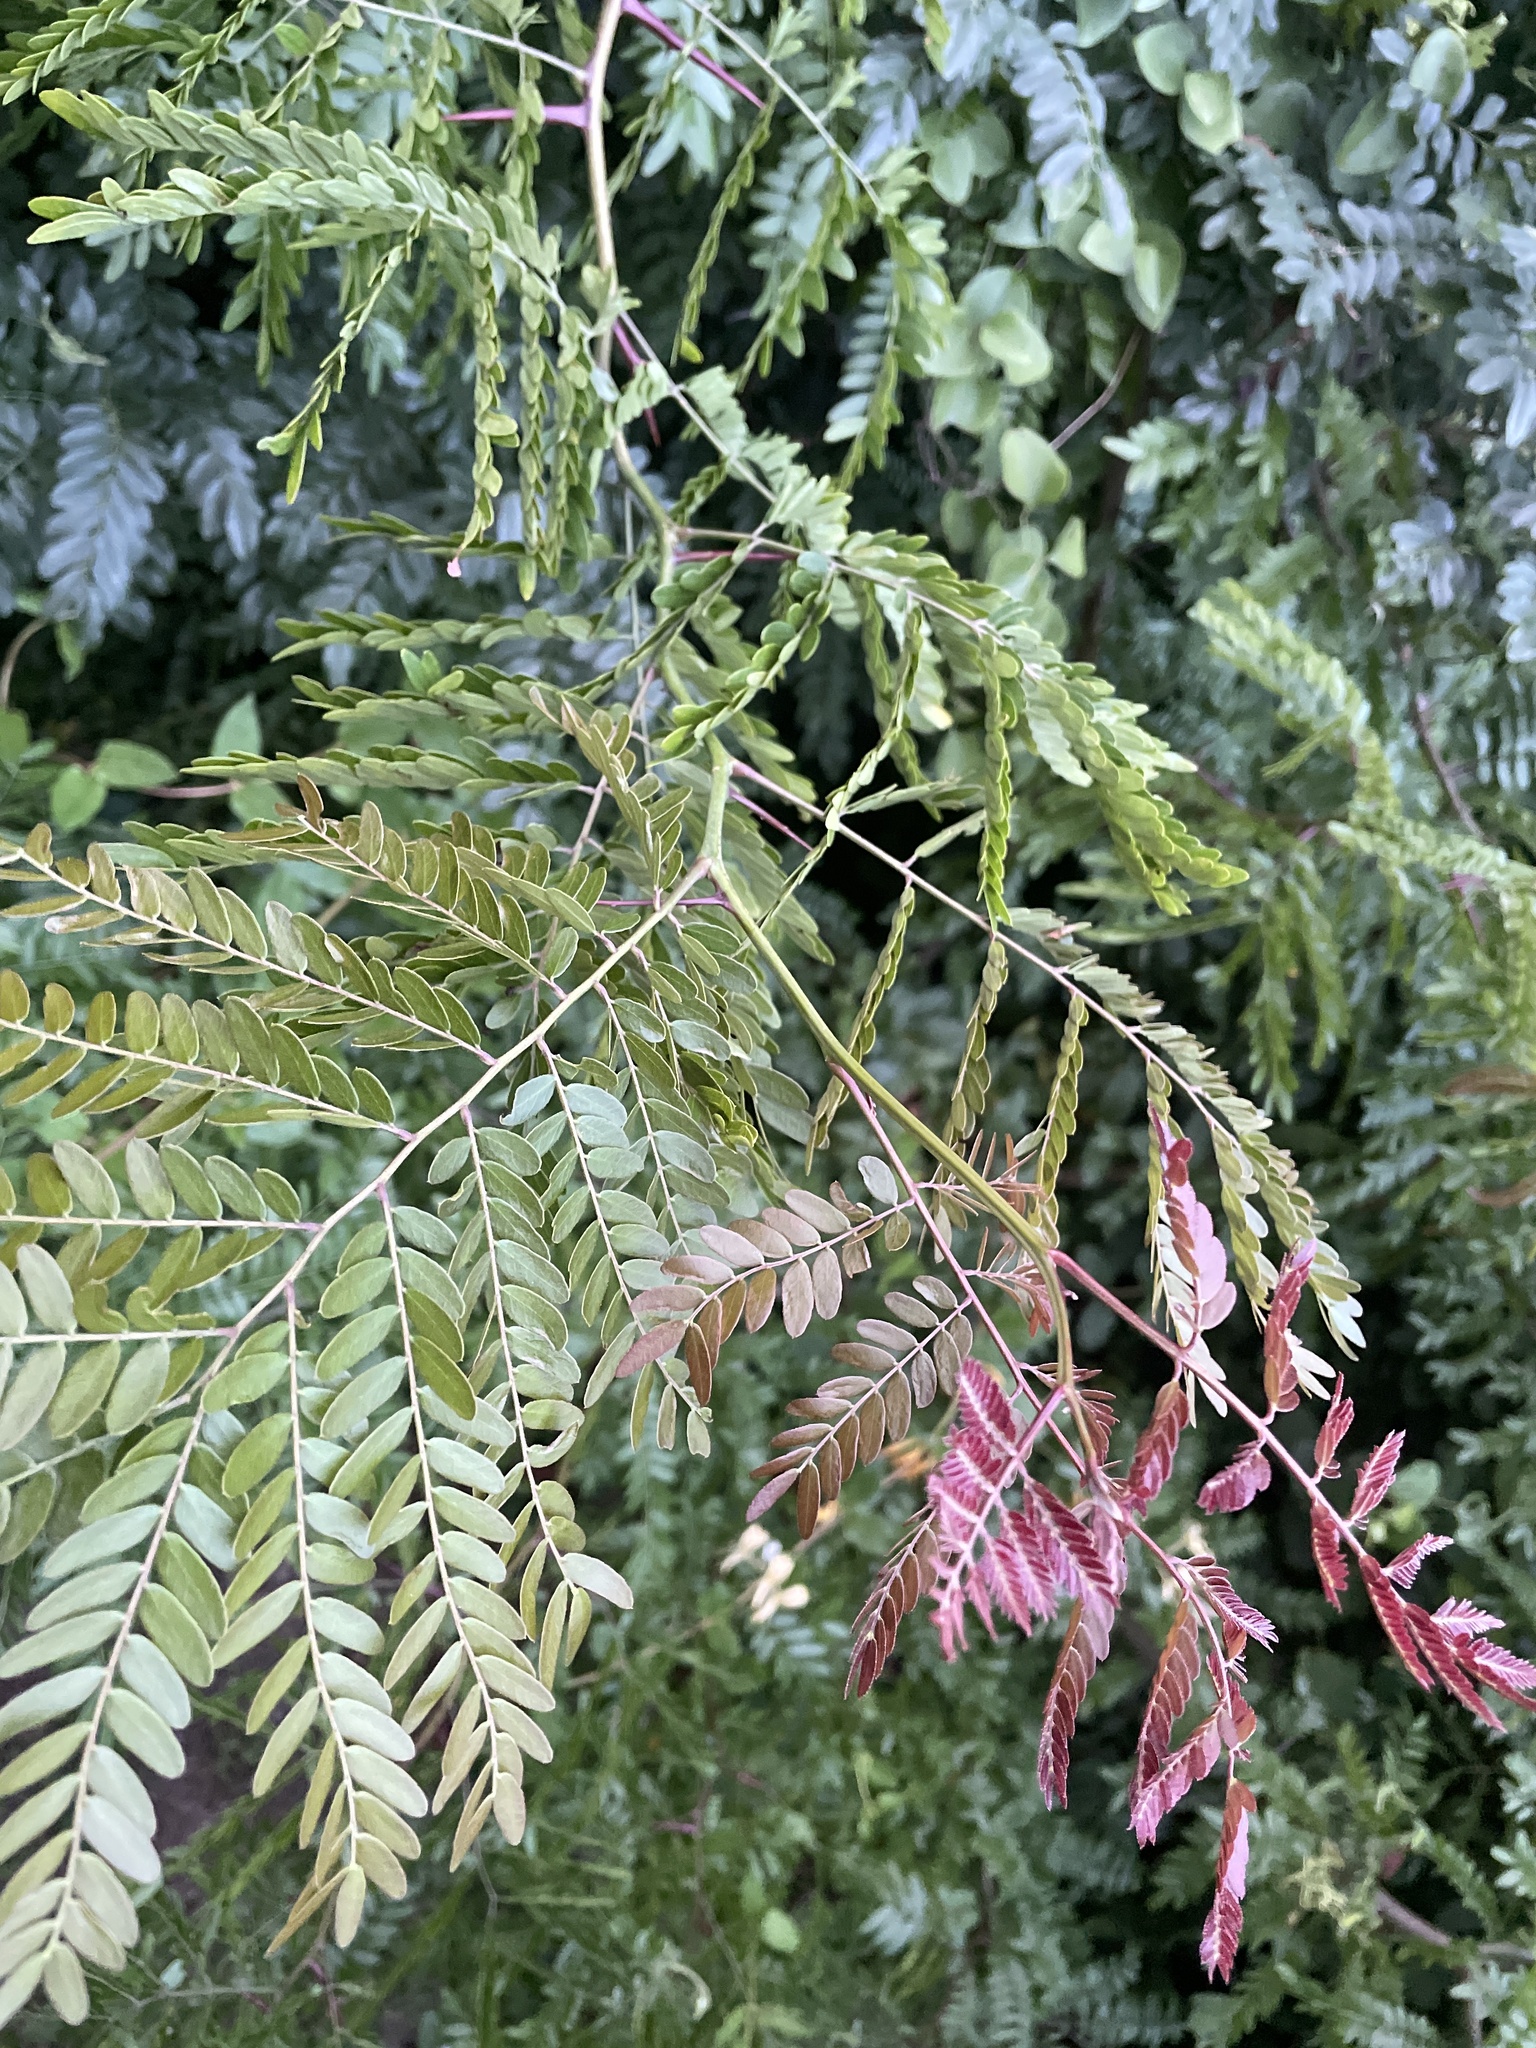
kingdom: Plantae
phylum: Tracheophyta
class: Magnoliopsida
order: Fabales
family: Fabaceae
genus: Gleditsia
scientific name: Gleditsia triacanthos
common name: Common honeylocust
